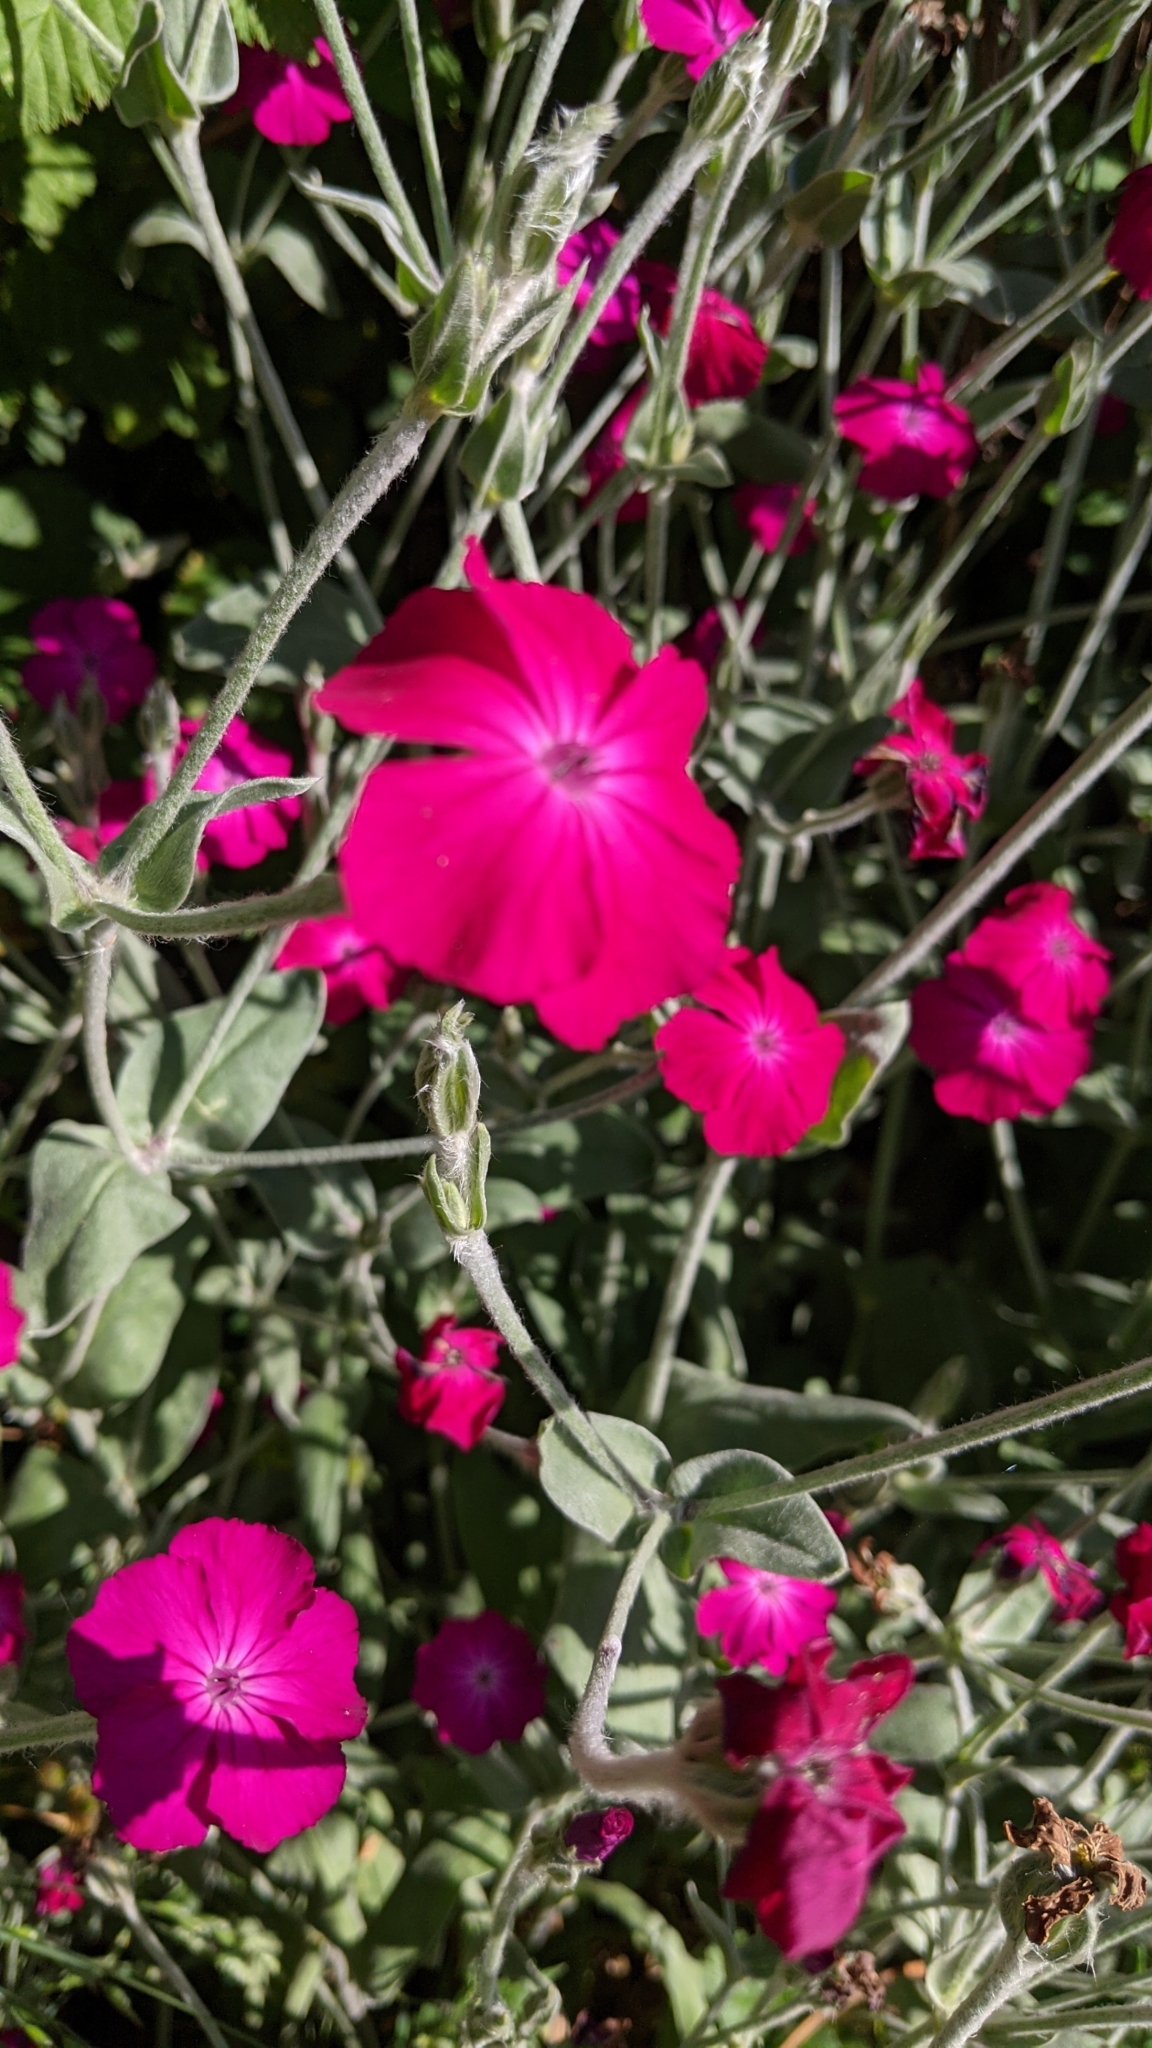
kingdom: Plantae
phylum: Tracheophyta
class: Magnoliopsida
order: Caryophyllales
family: Caryophyllaceae
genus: Silene
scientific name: Silene coronaria
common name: Rose campion
